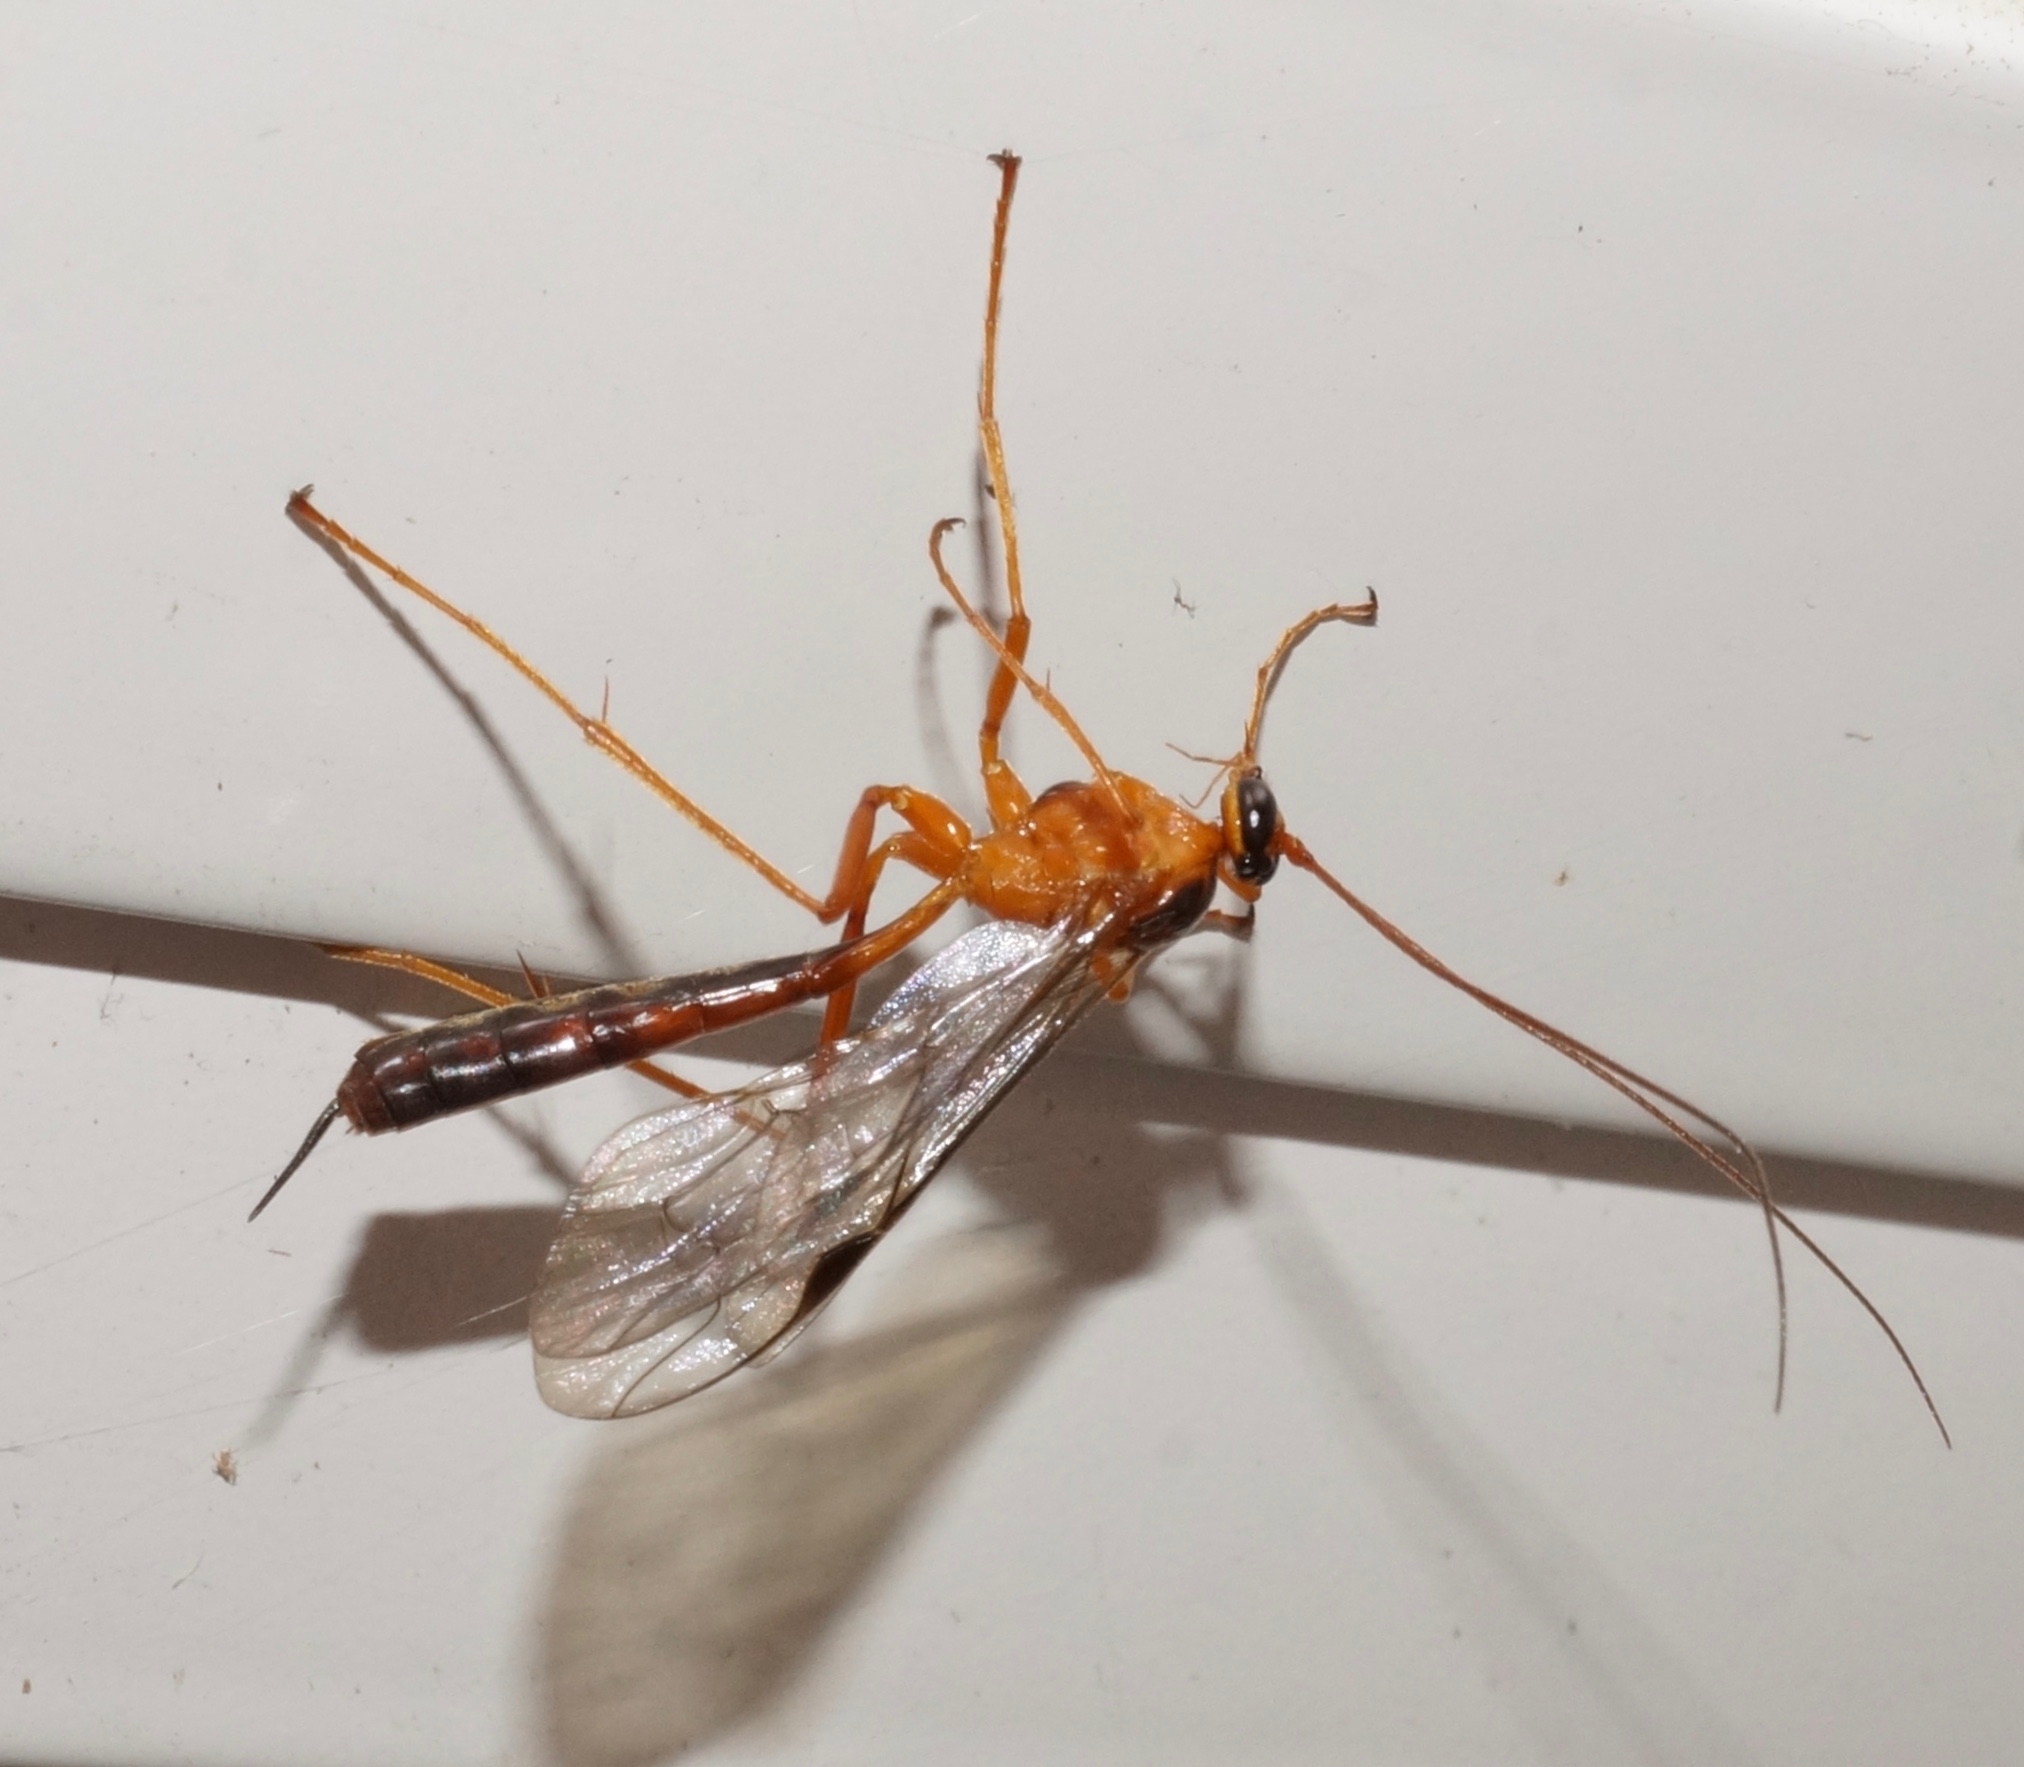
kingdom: Animalia
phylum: Arthropoda
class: Insecta
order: Hymenoptera
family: Ichneumonidae
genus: Netelia
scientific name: Netelia ephippiata
